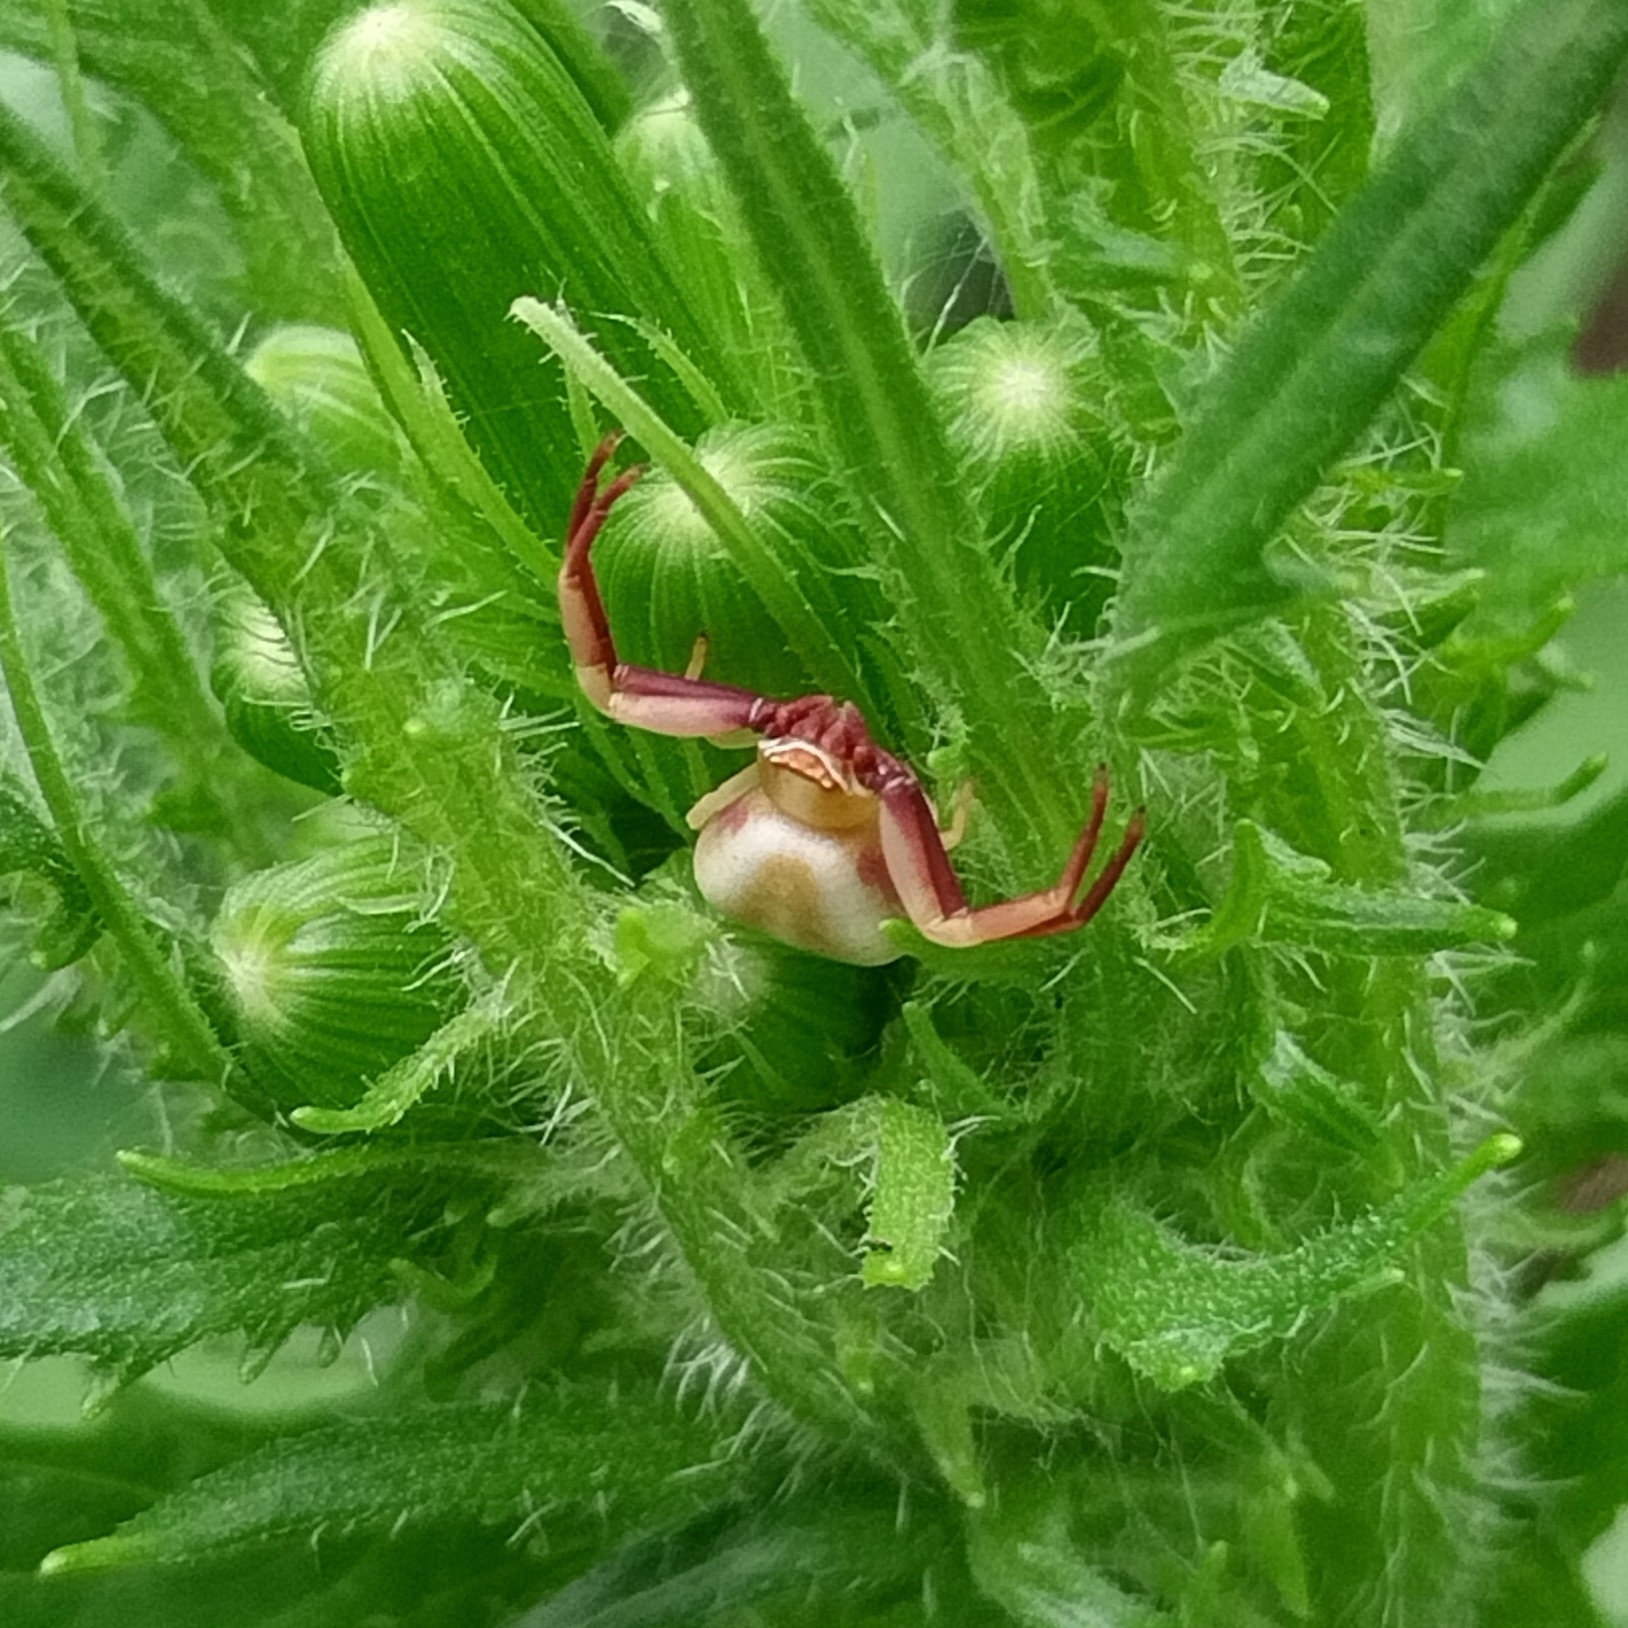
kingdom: Animalia
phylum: Arthropoda
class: Arachnida
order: Araneae
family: Thomisidae
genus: Misumenoides
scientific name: Misumenoides formosipes
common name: White-banded crab spider
